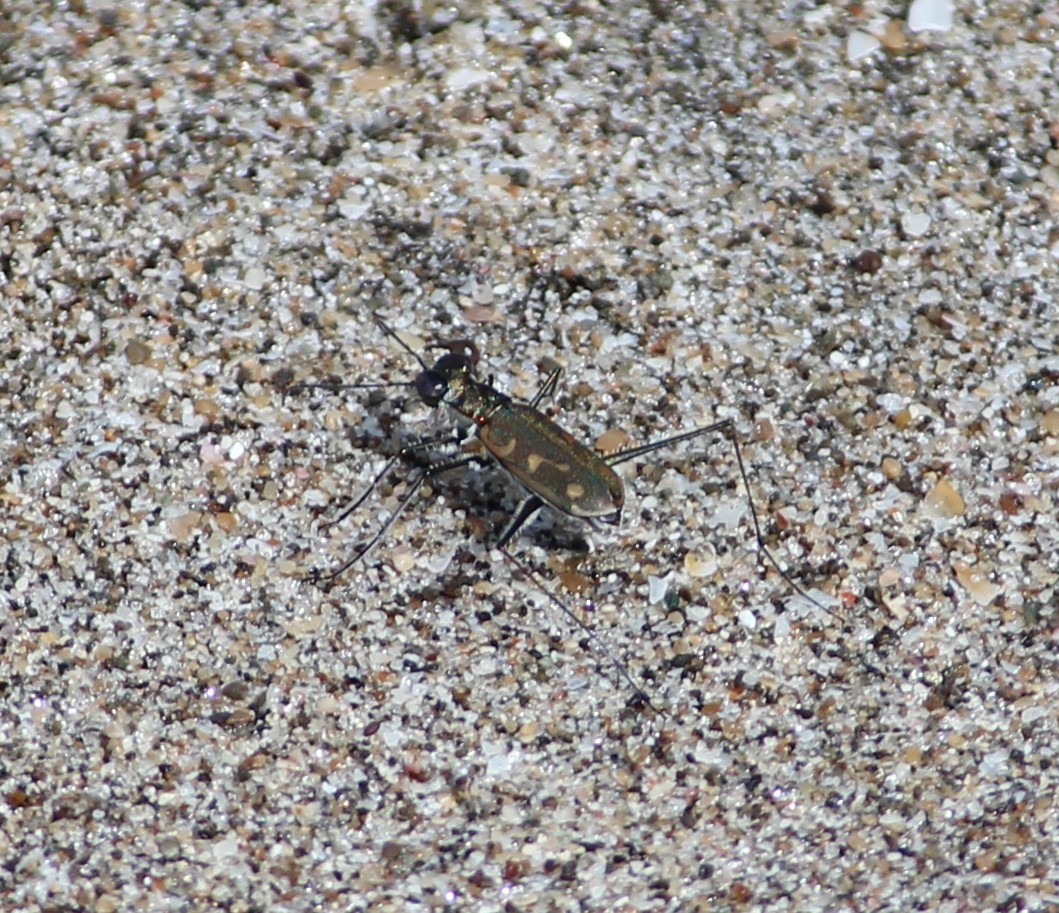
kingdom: Animalia
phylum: Arthropoda
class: Insecta
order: Coleoptera
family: Carabidae
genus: Opilidia
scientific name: Opilidia macrocnema
